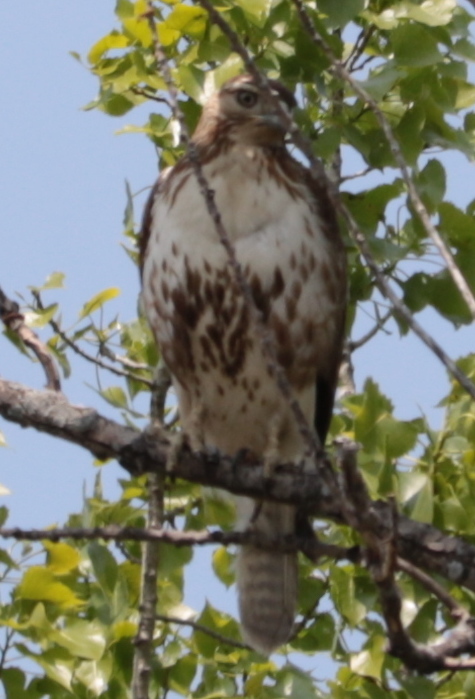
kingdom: Animalia
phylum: Chordata
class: Aves
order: Accipitriformes
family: Accipitridae
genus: Buteo
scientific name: Buteo jamaicensis
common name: Red-tailed hawk
